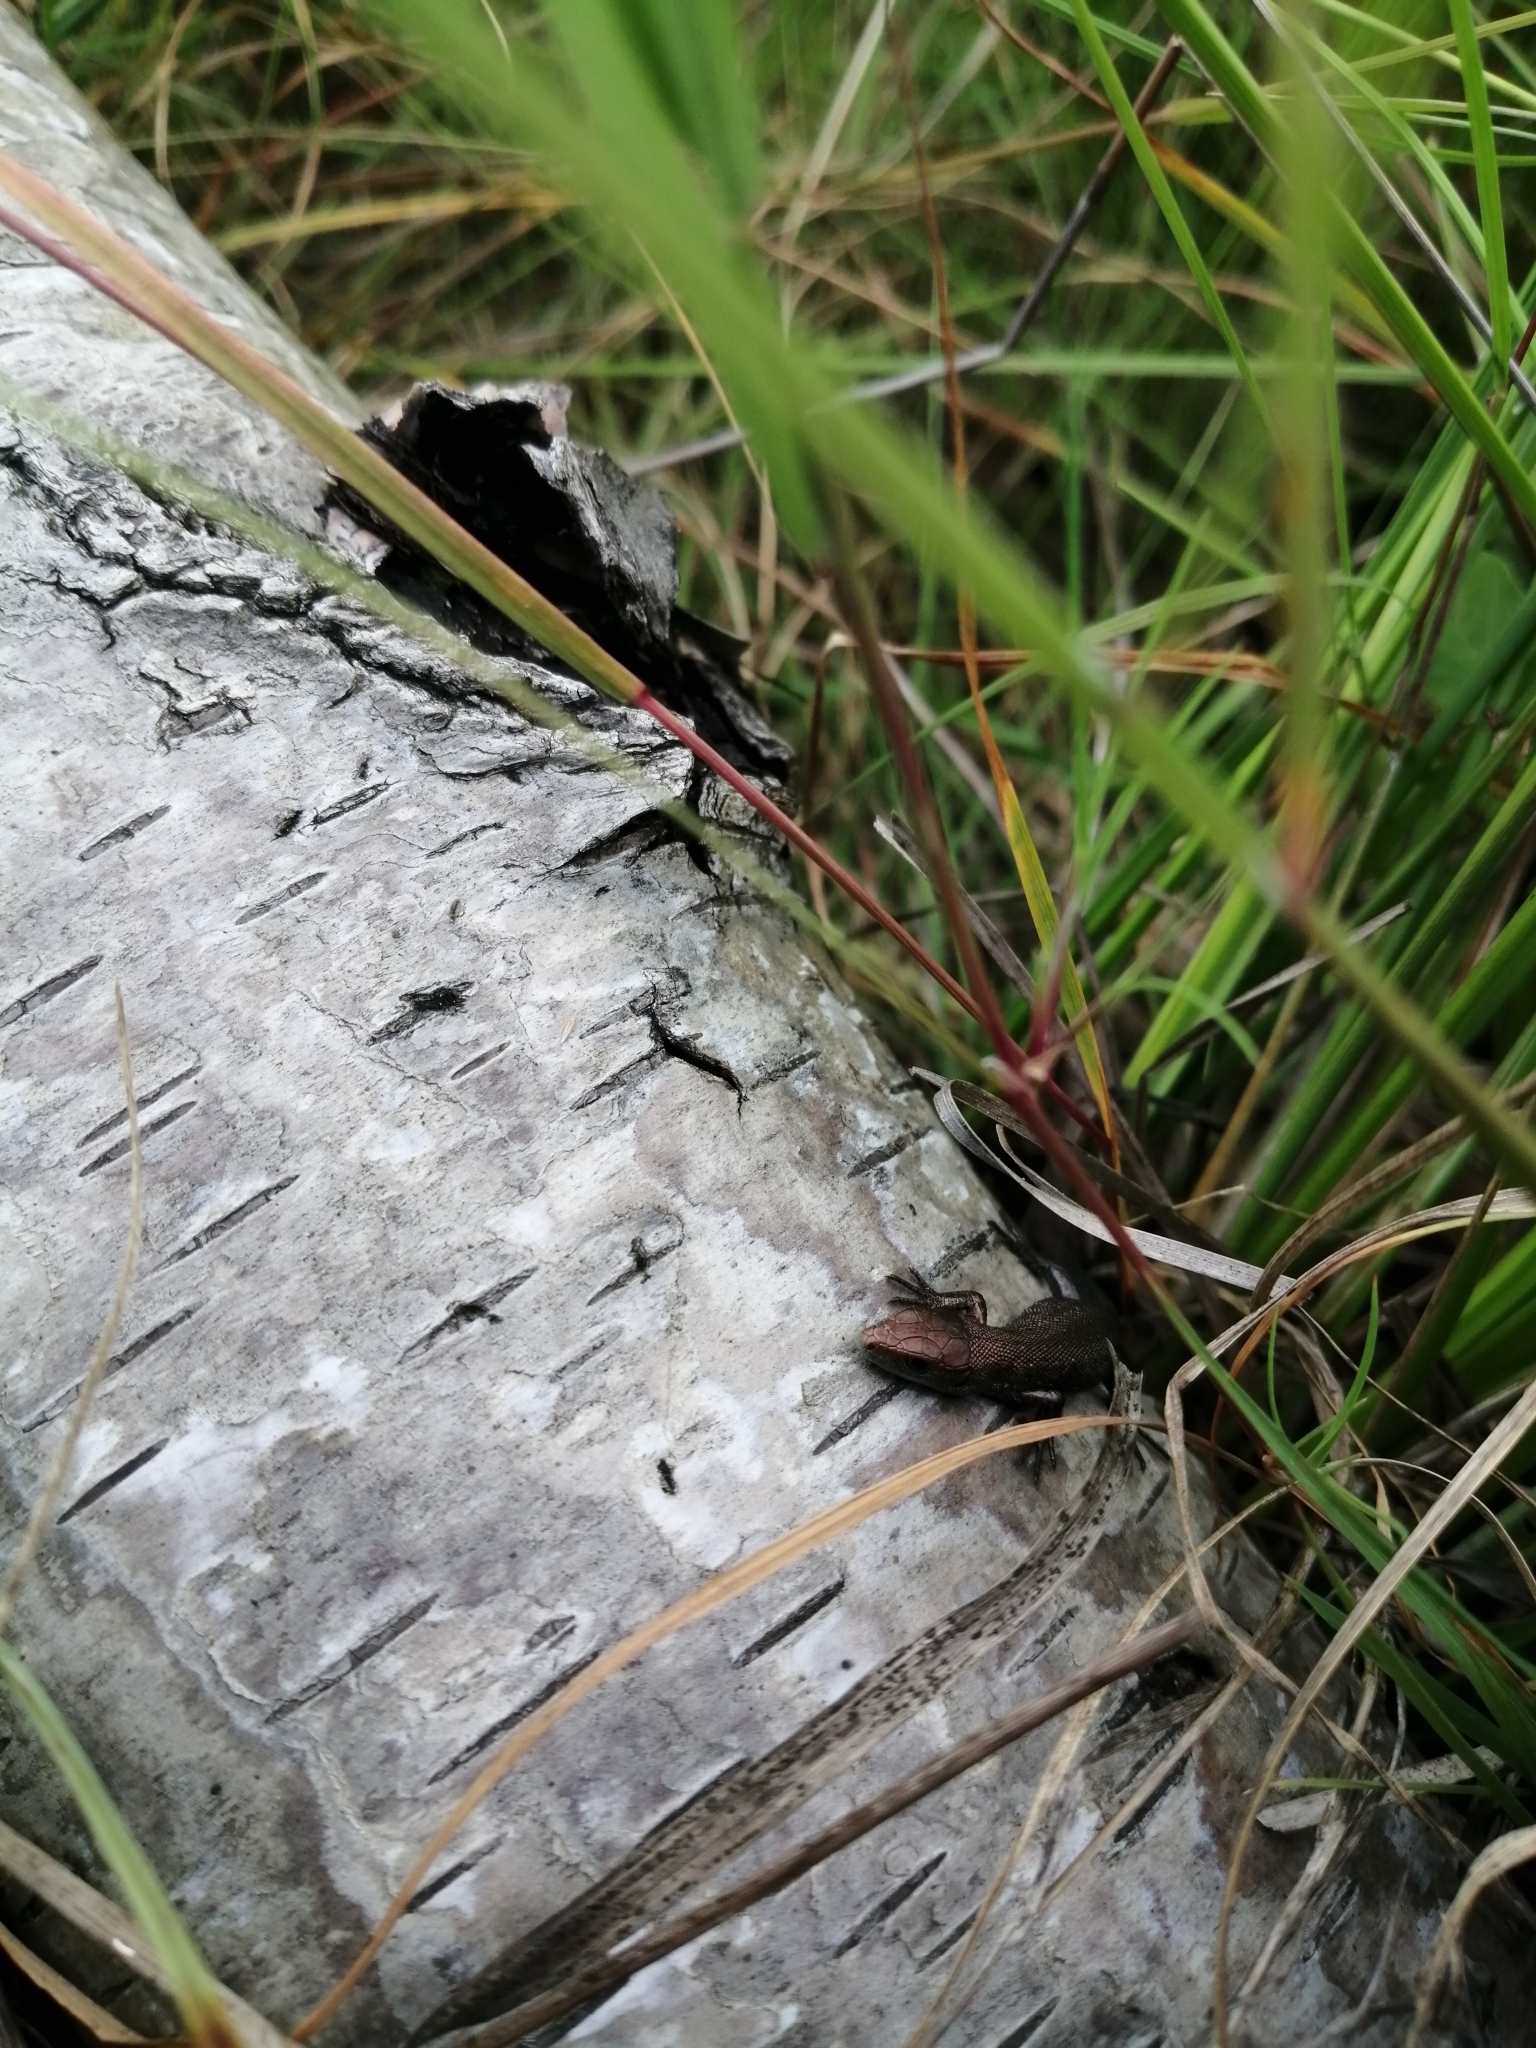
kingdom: Animalia
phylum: Chordata
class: Squamata
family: Lacertidae
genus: Zootoca
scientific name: Zootoca vivipara
